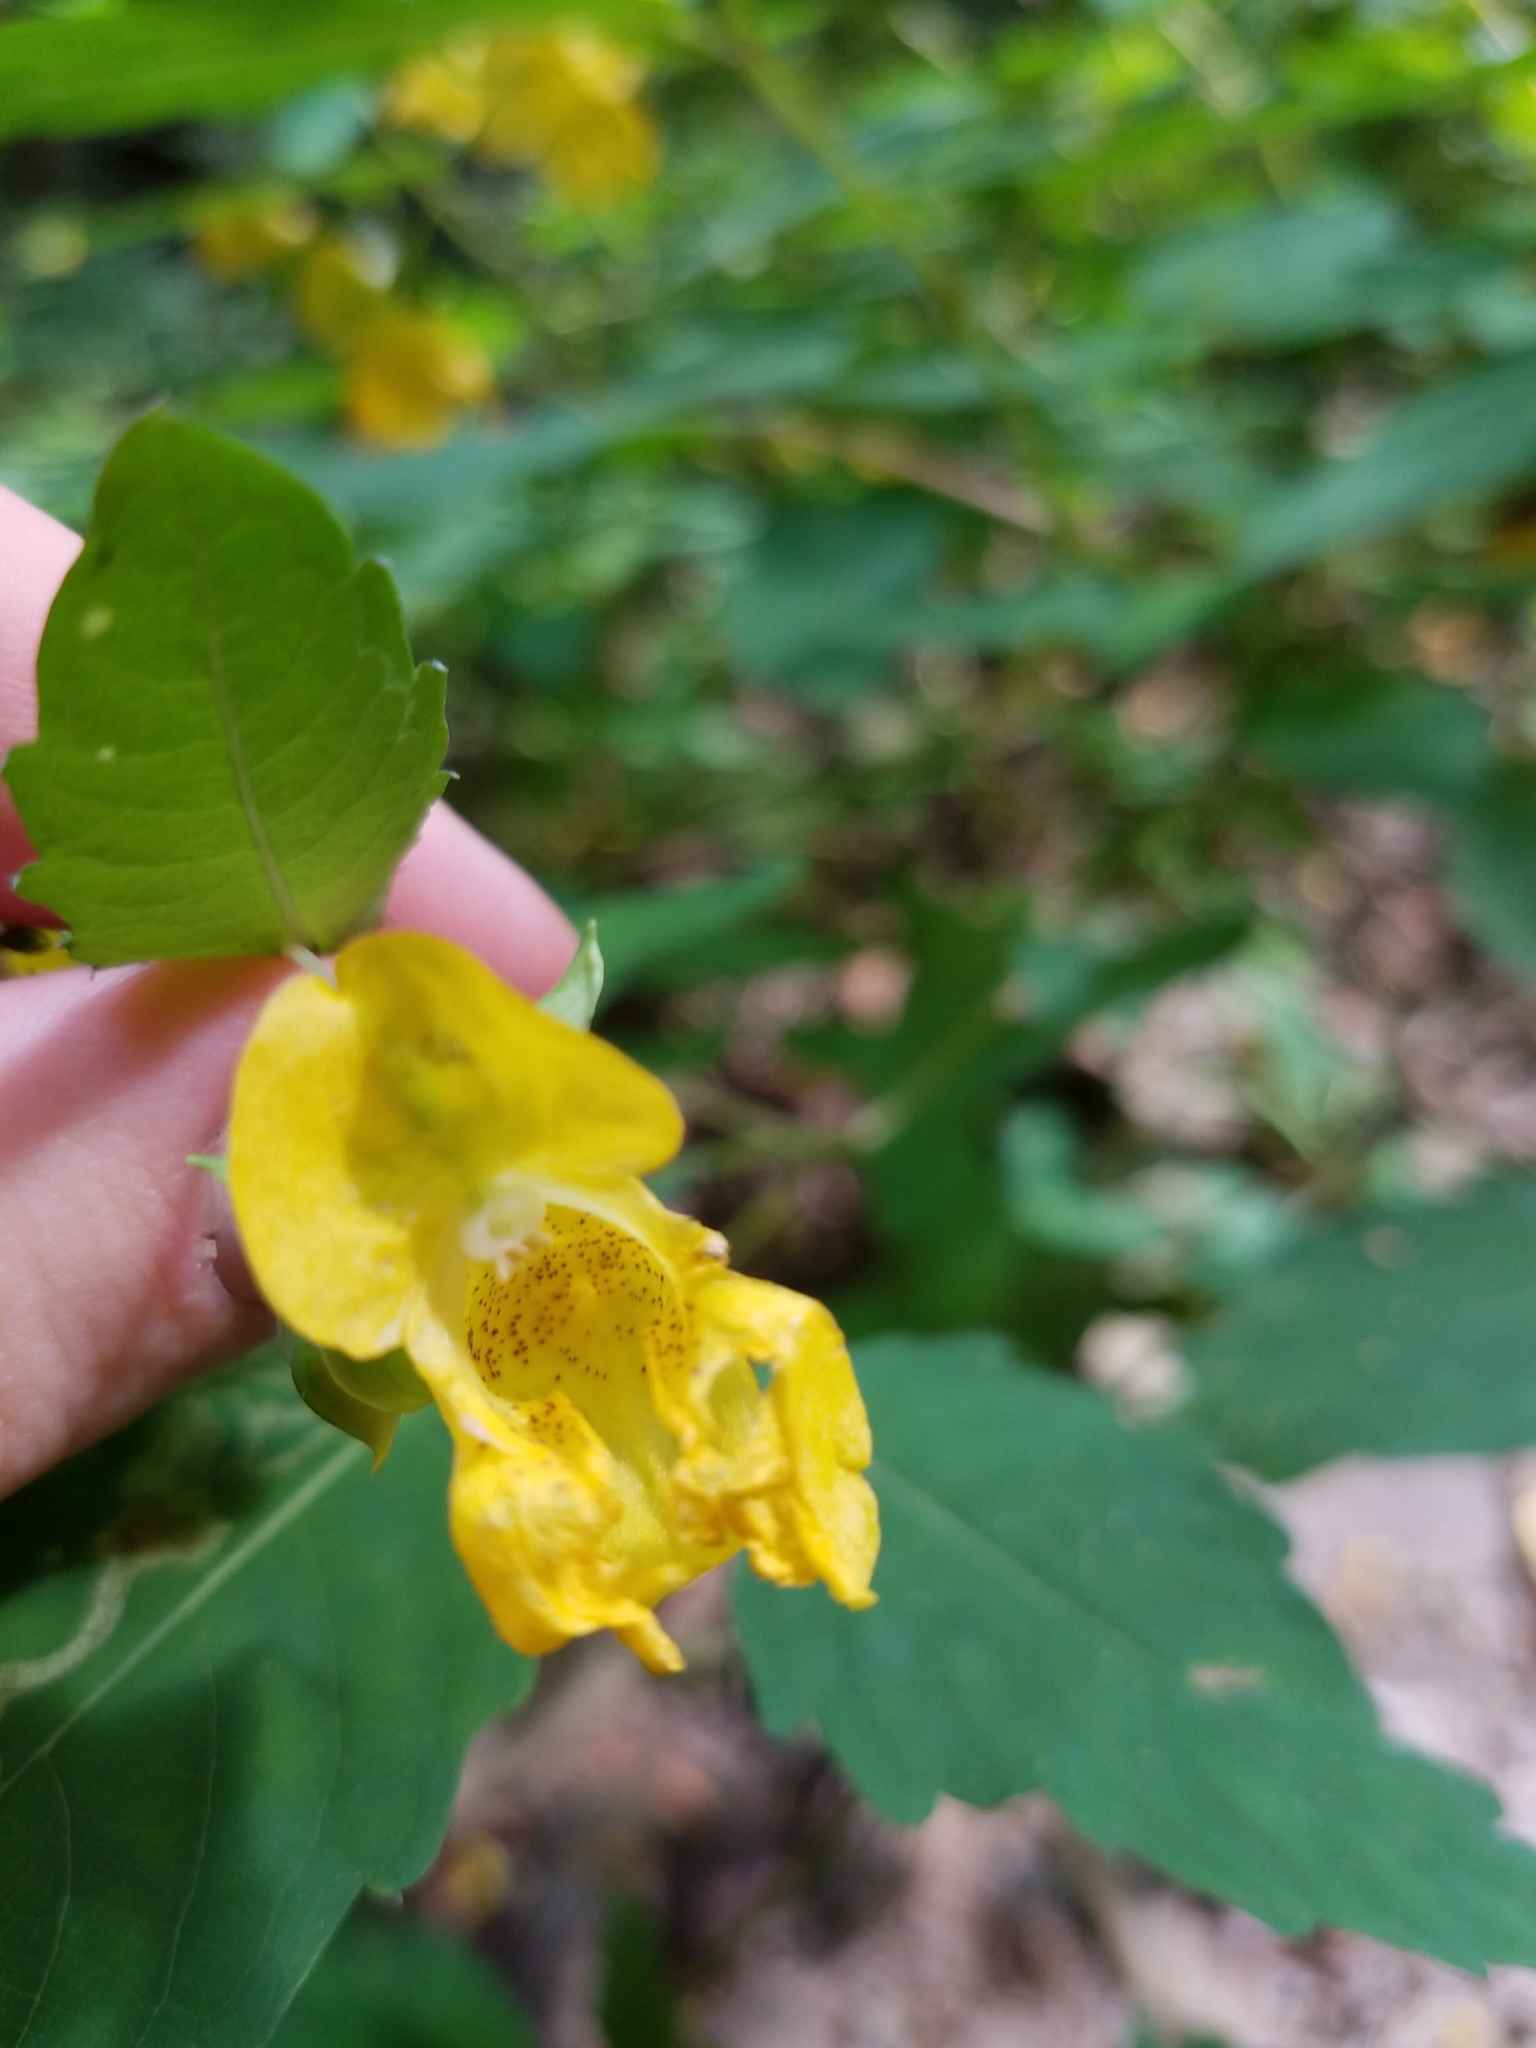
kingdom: Plantae
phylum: Tracheophyta
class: Magnoliopsida
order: Ericales
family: Balsaminaceae
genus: Impatiens
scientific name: Impatiens pallida
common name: Pale snapweed
